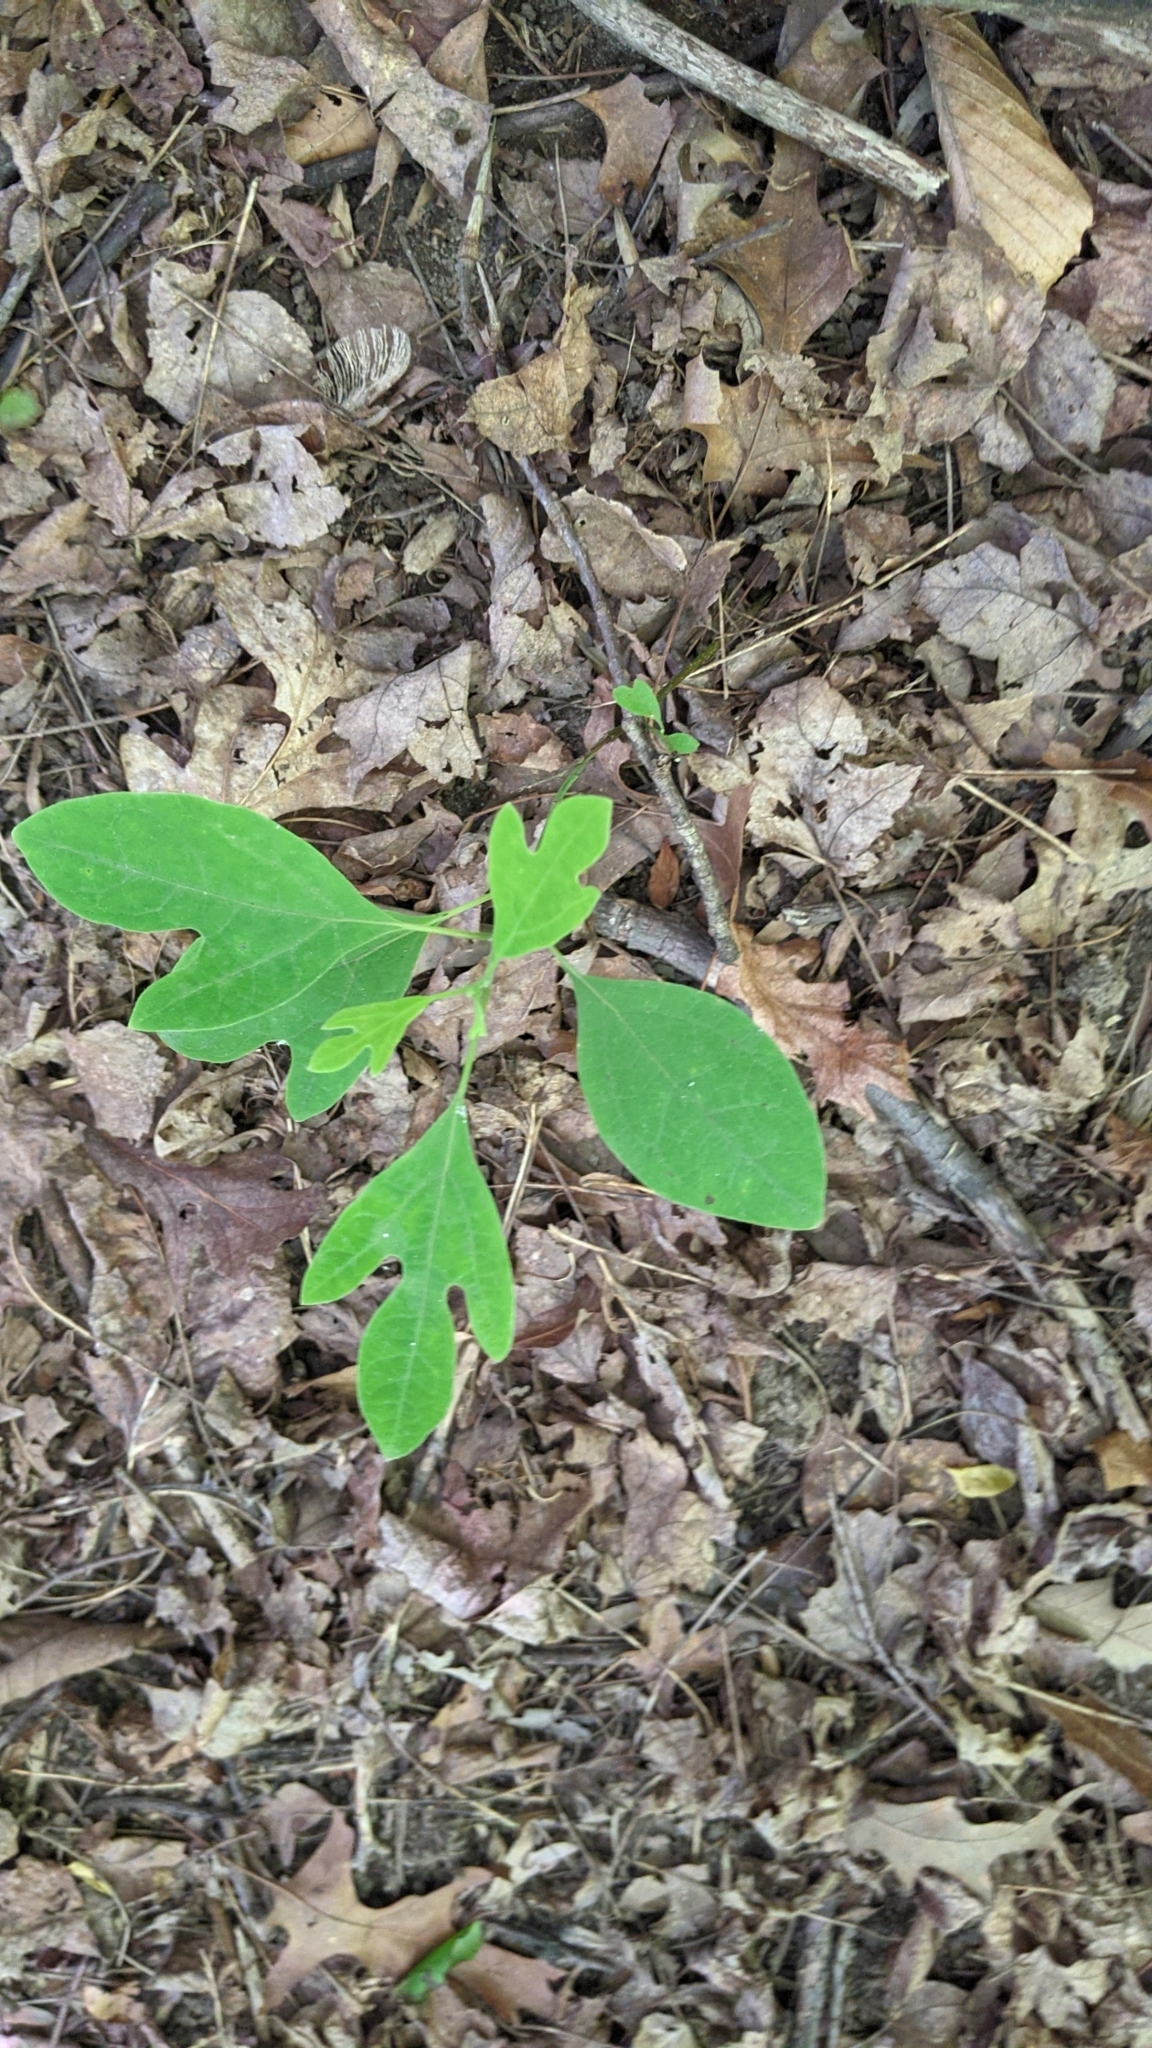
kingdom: Plantae
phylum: Tracheophyta
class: Magnoliopsida
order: Laurales
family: Lauraceae
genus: Sassafras
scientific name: Sassafras albidum
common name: Sassafras
